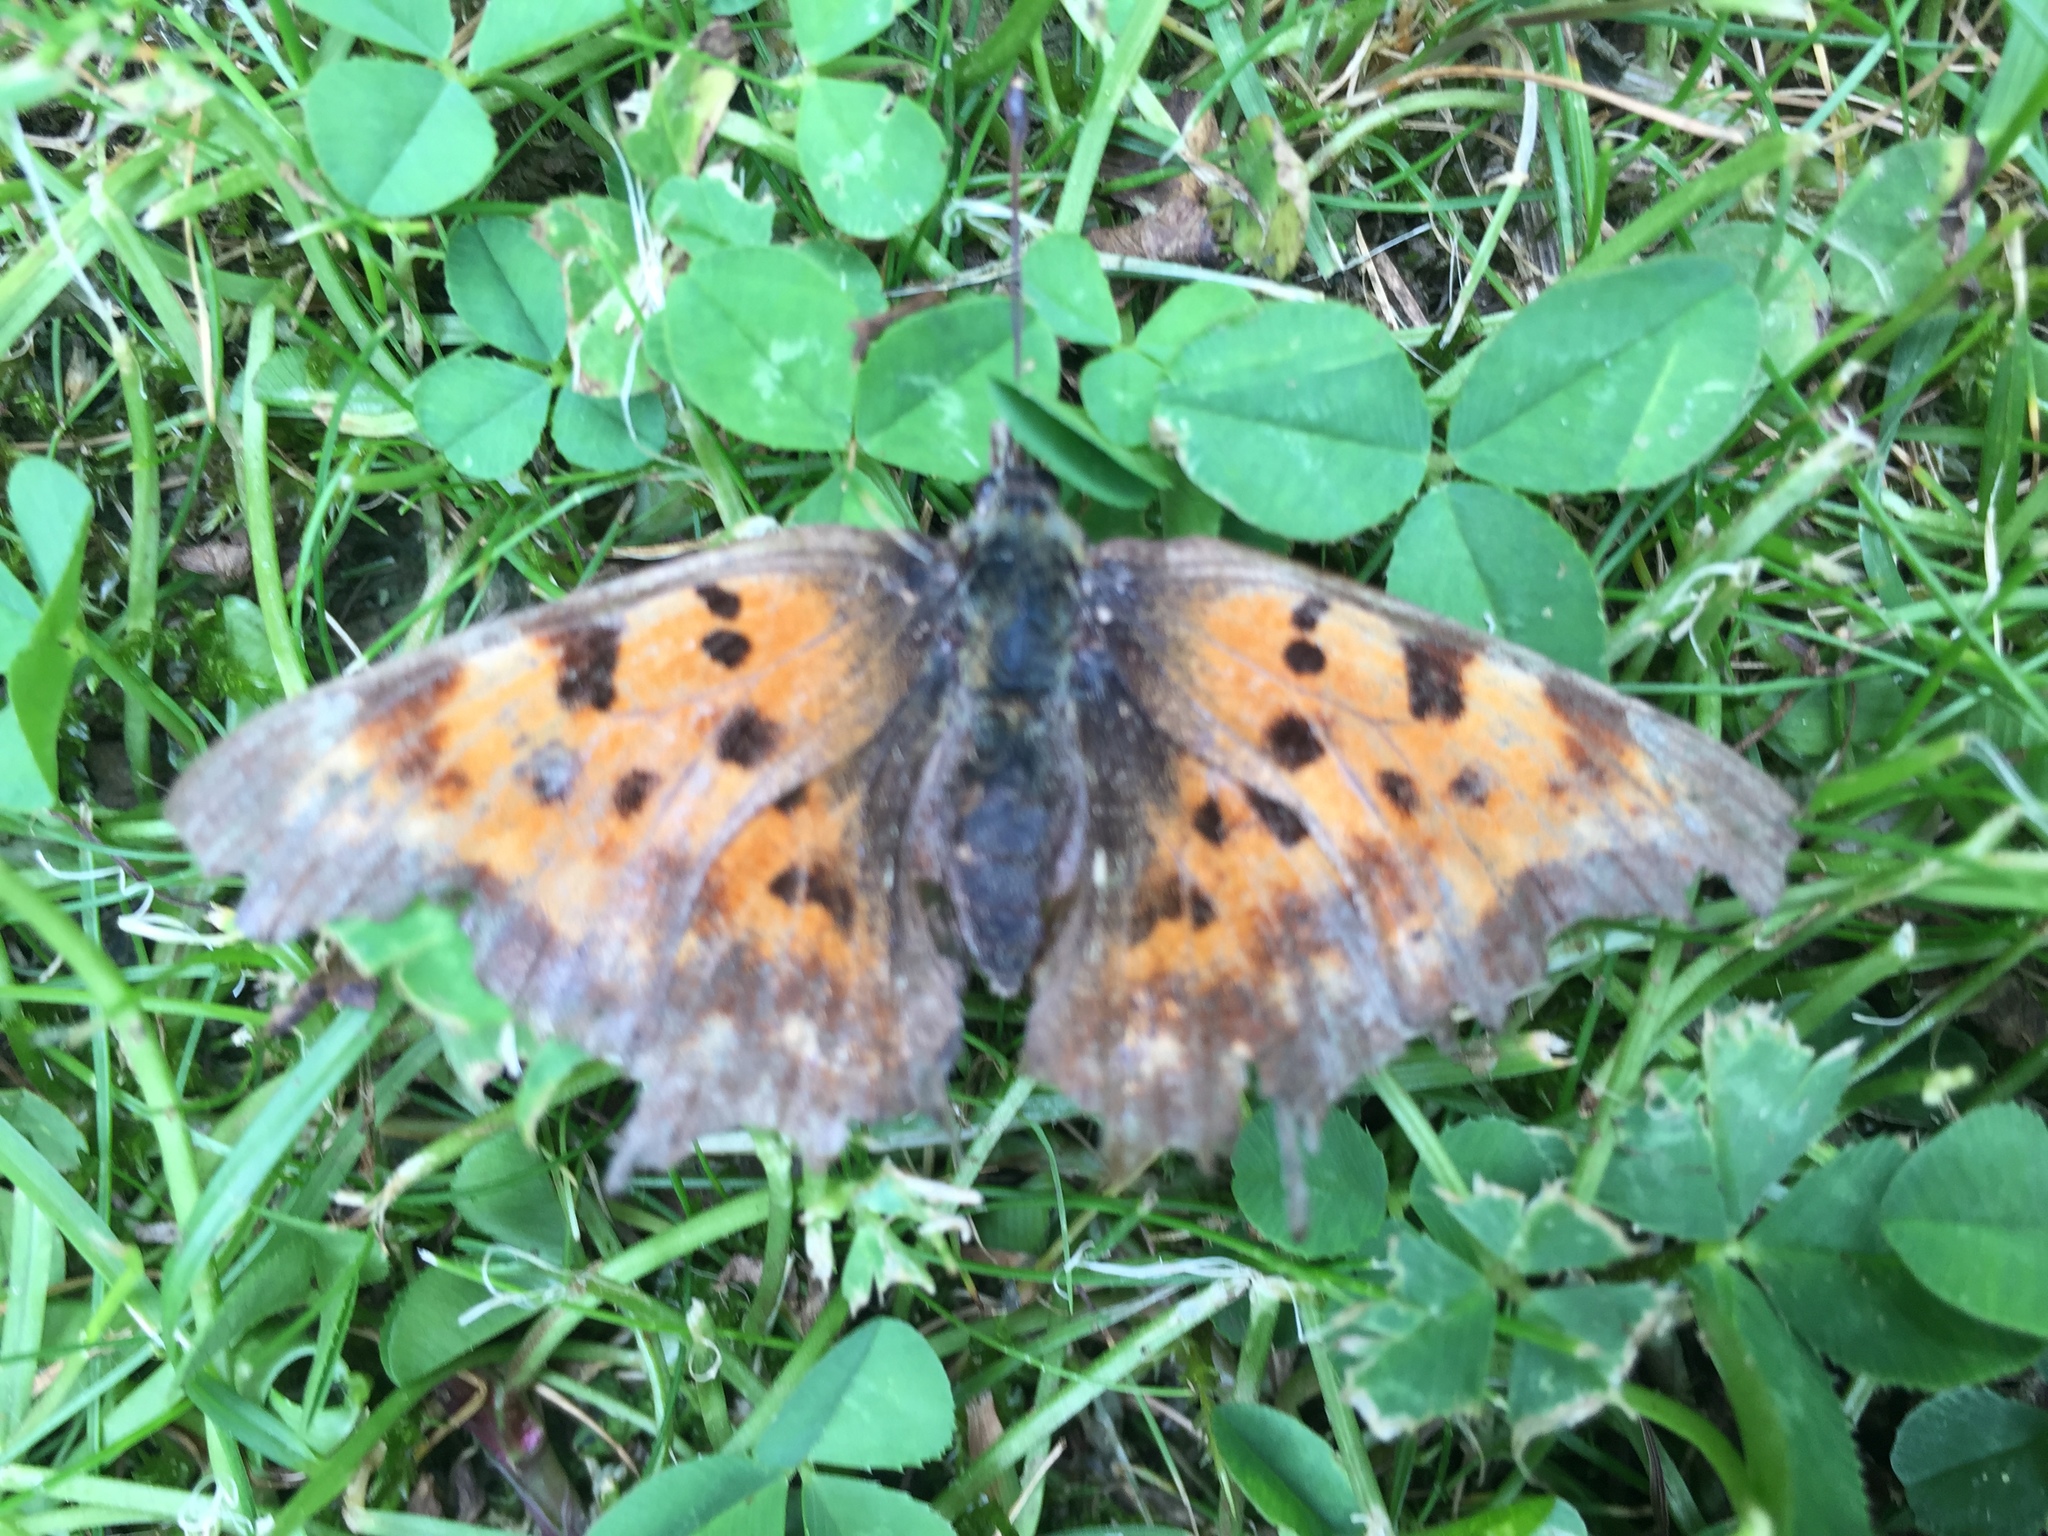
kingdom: Animalia
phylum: Arthropoda
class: Insecta
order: Lepidoptera
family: Nymphalidae
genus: Polygonia
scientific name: Polygonia c-album
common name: Comma
